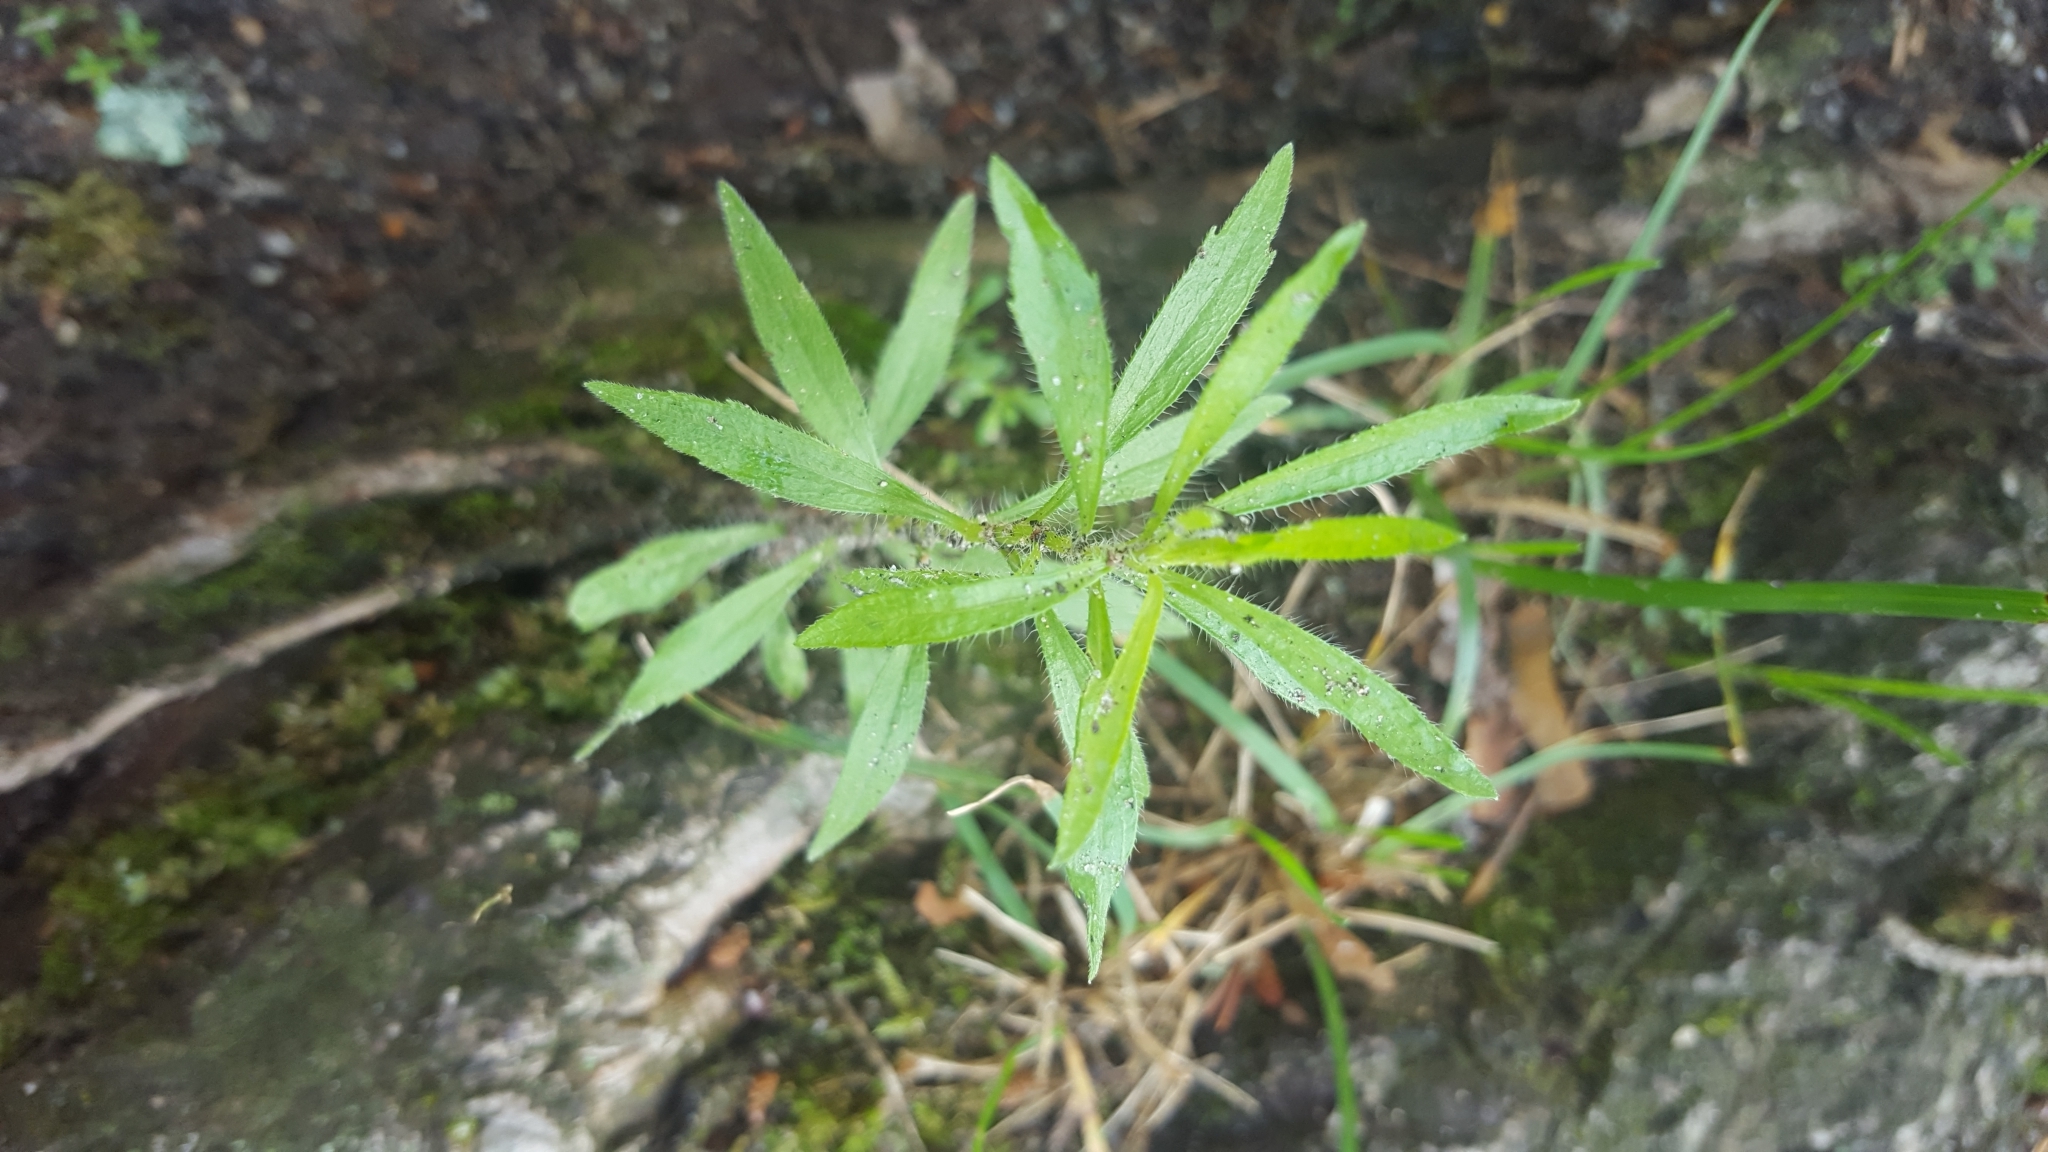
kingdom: Plantae
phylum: Tracheophyta
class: Magnoliopsida
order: Asterales
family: Asteraceae
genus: Erigeron
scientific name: Erigeron canadensis
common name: Canadian fleabane
